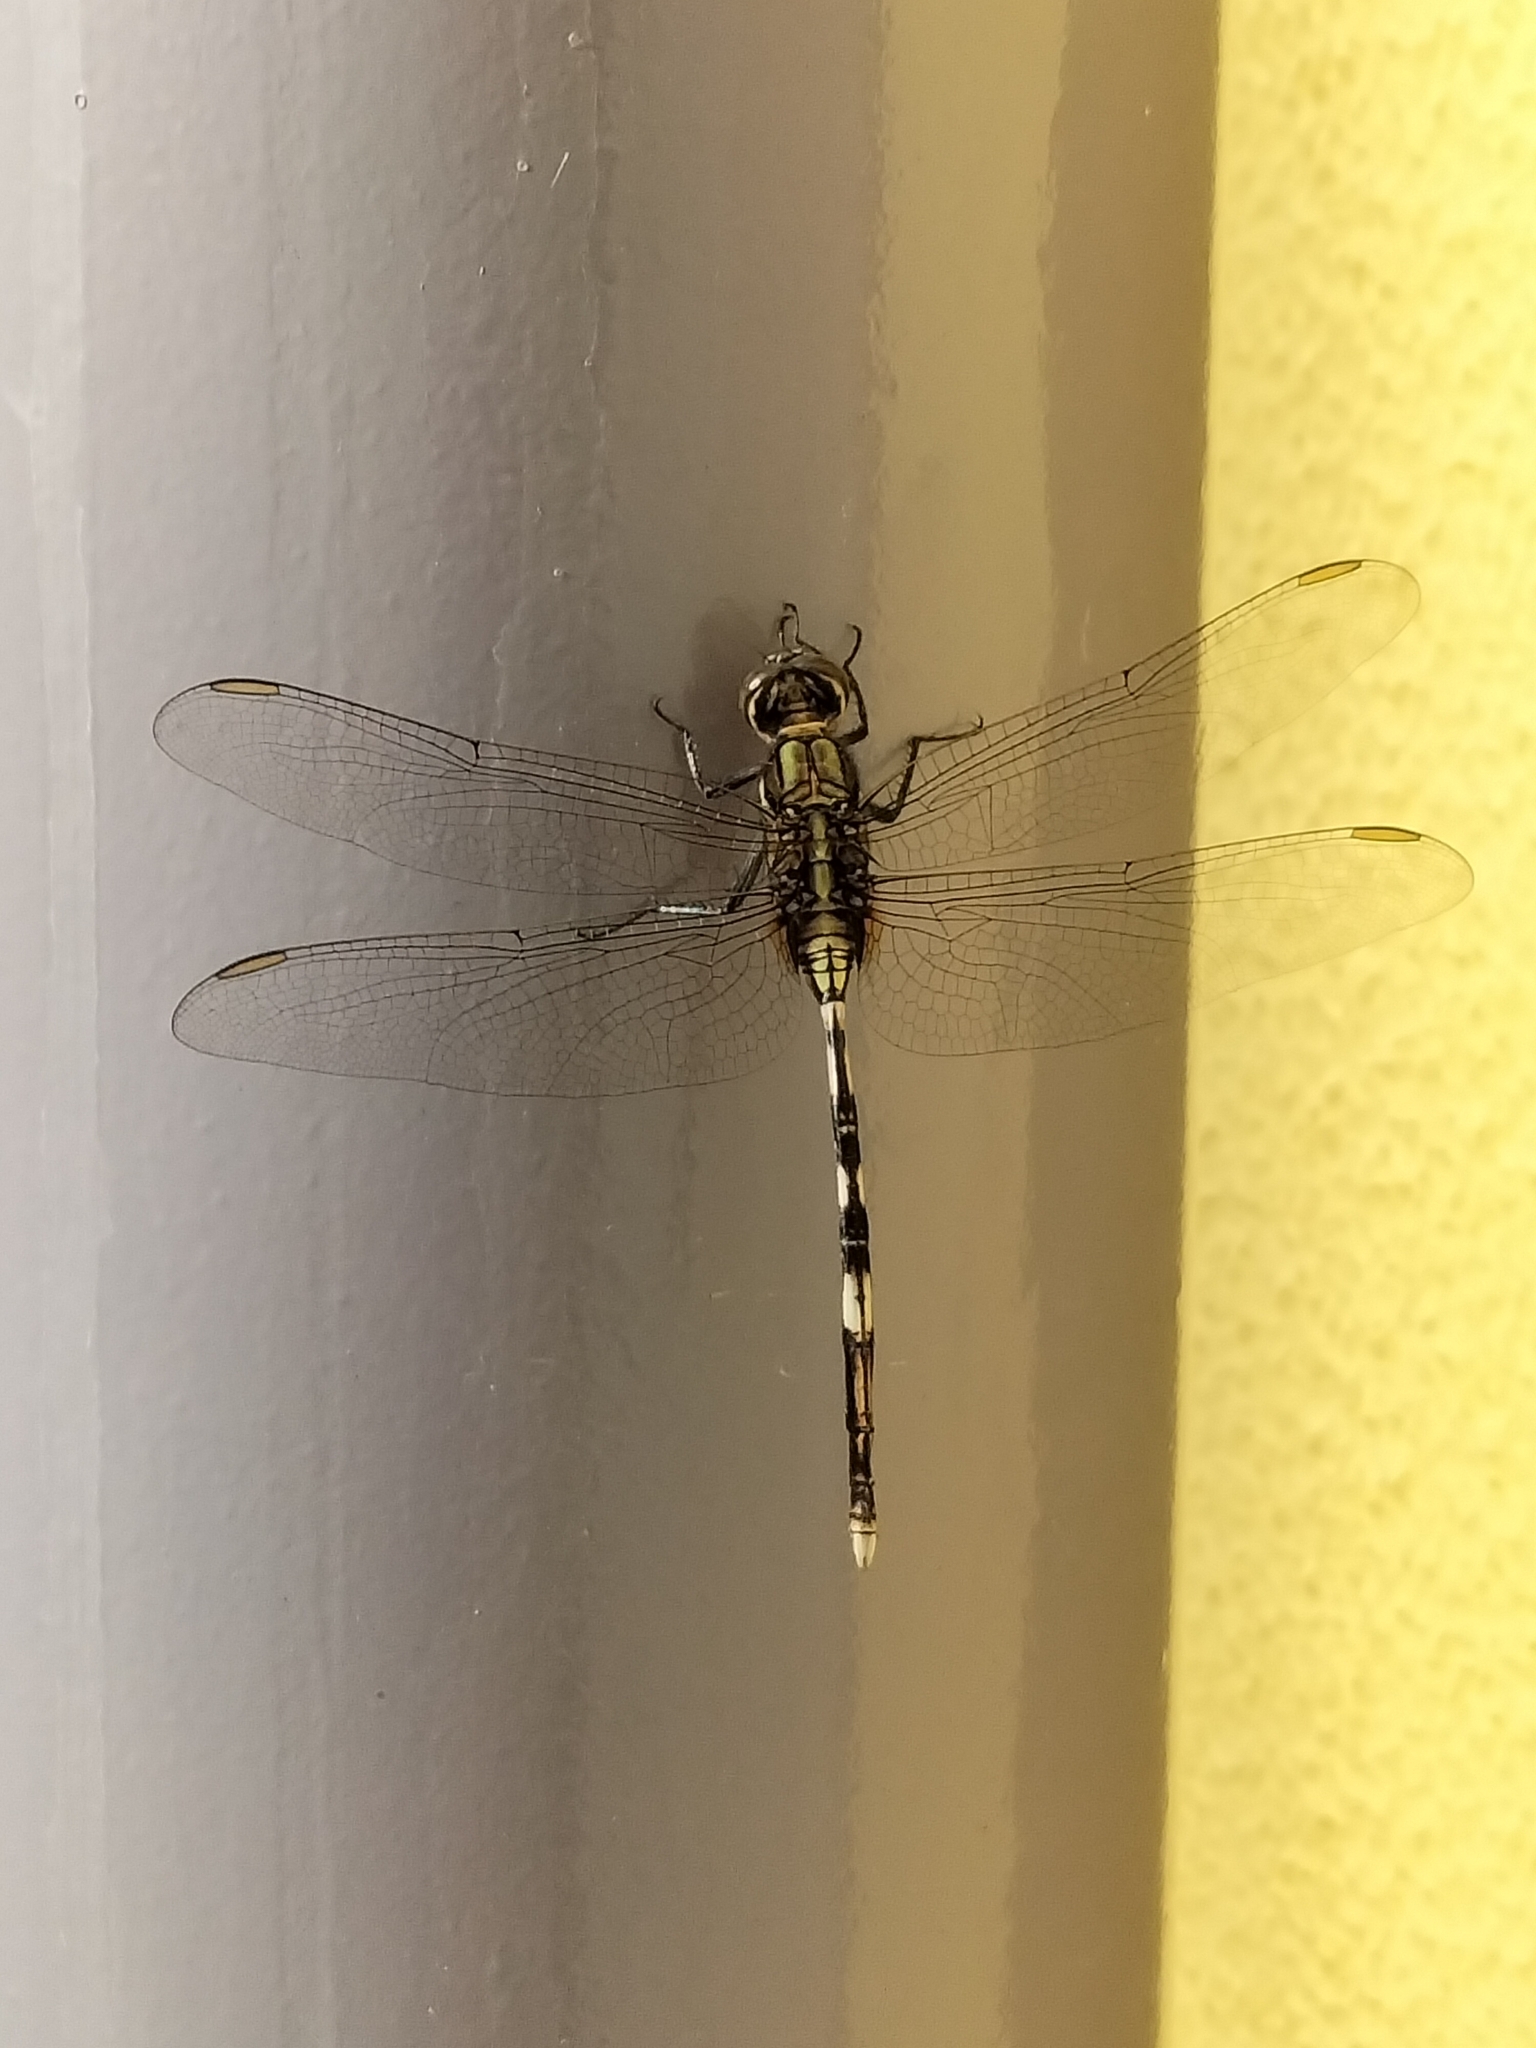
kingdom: Animalia
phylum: Arthropoda
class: Insecta
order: Odonata
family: Libellulidae
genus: Orthetrum
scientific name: Orthetrum sabina
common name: Slender skimmer
